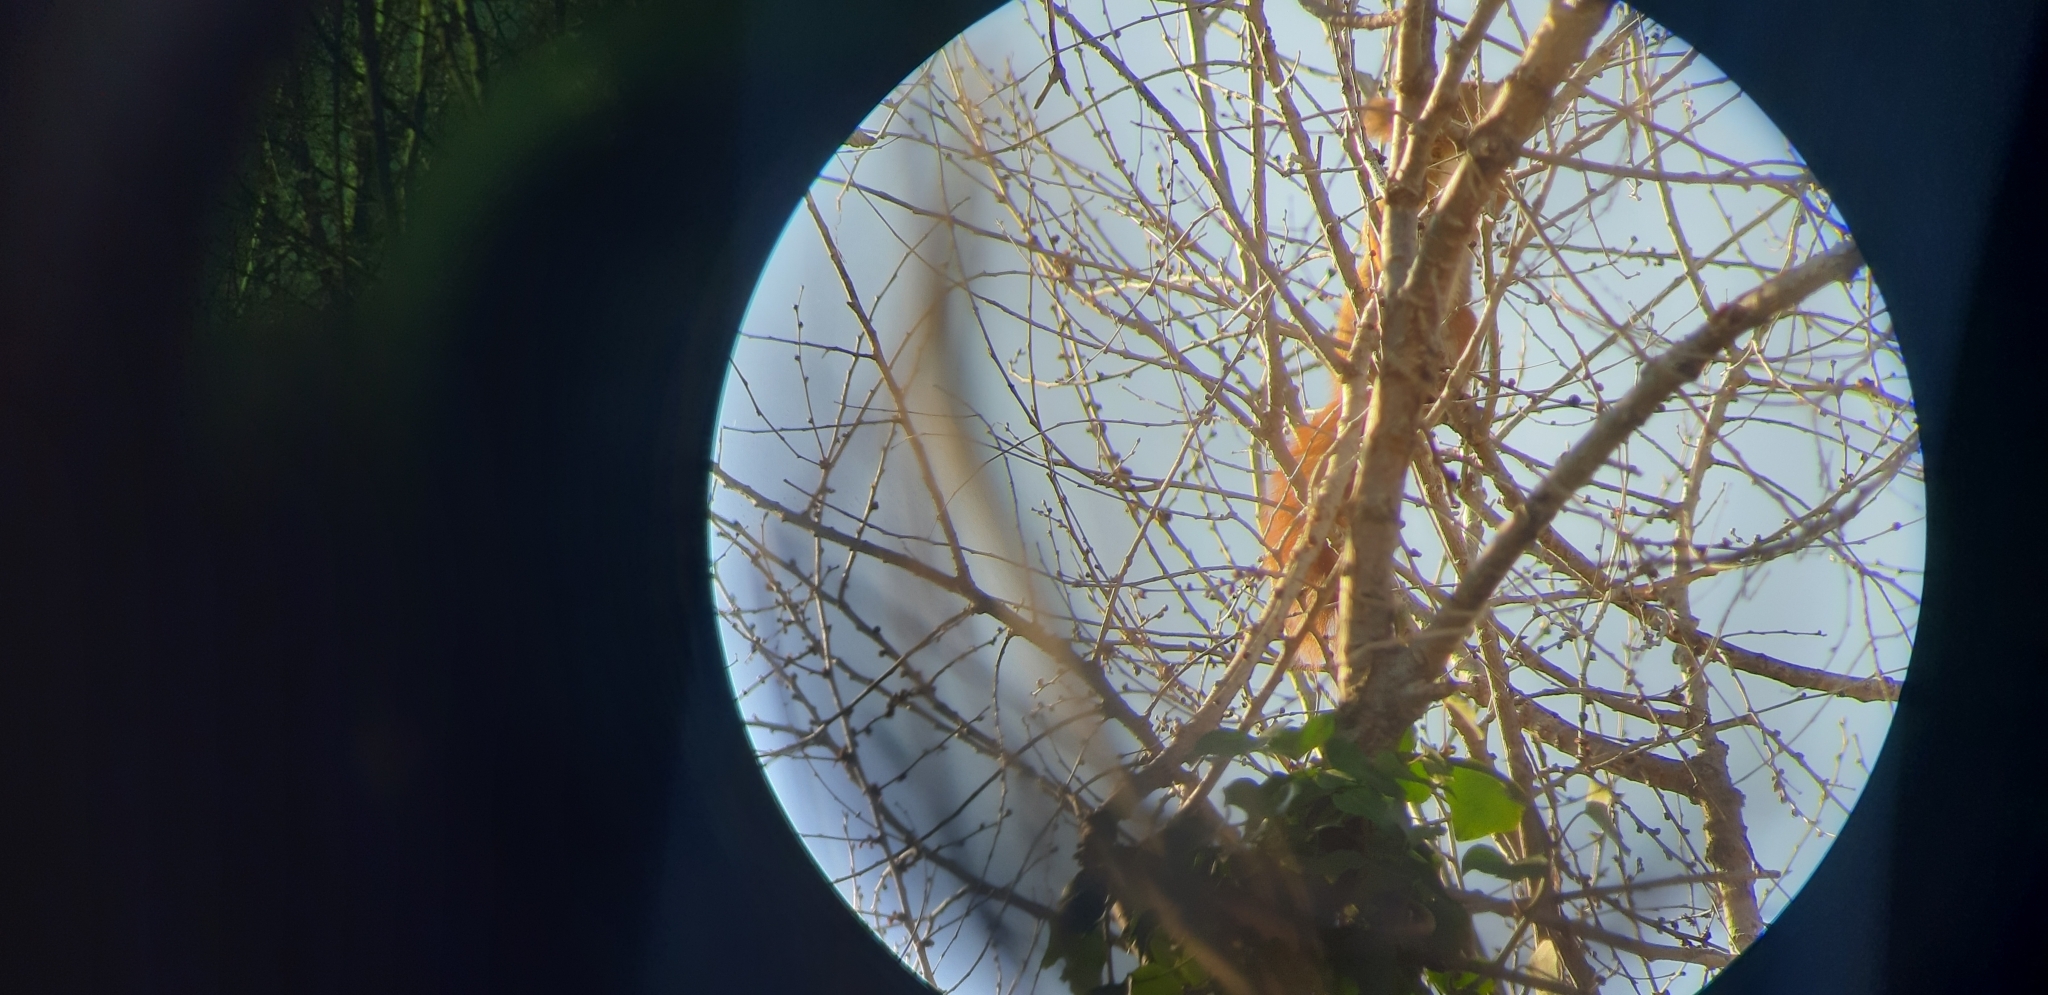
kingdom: Animalia
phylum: Chordata
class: Mammalia
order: Rodentia
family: Sciuridae
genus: Sciurus
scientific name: Sciurus vulgaris
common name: Eurasian red squirrel
